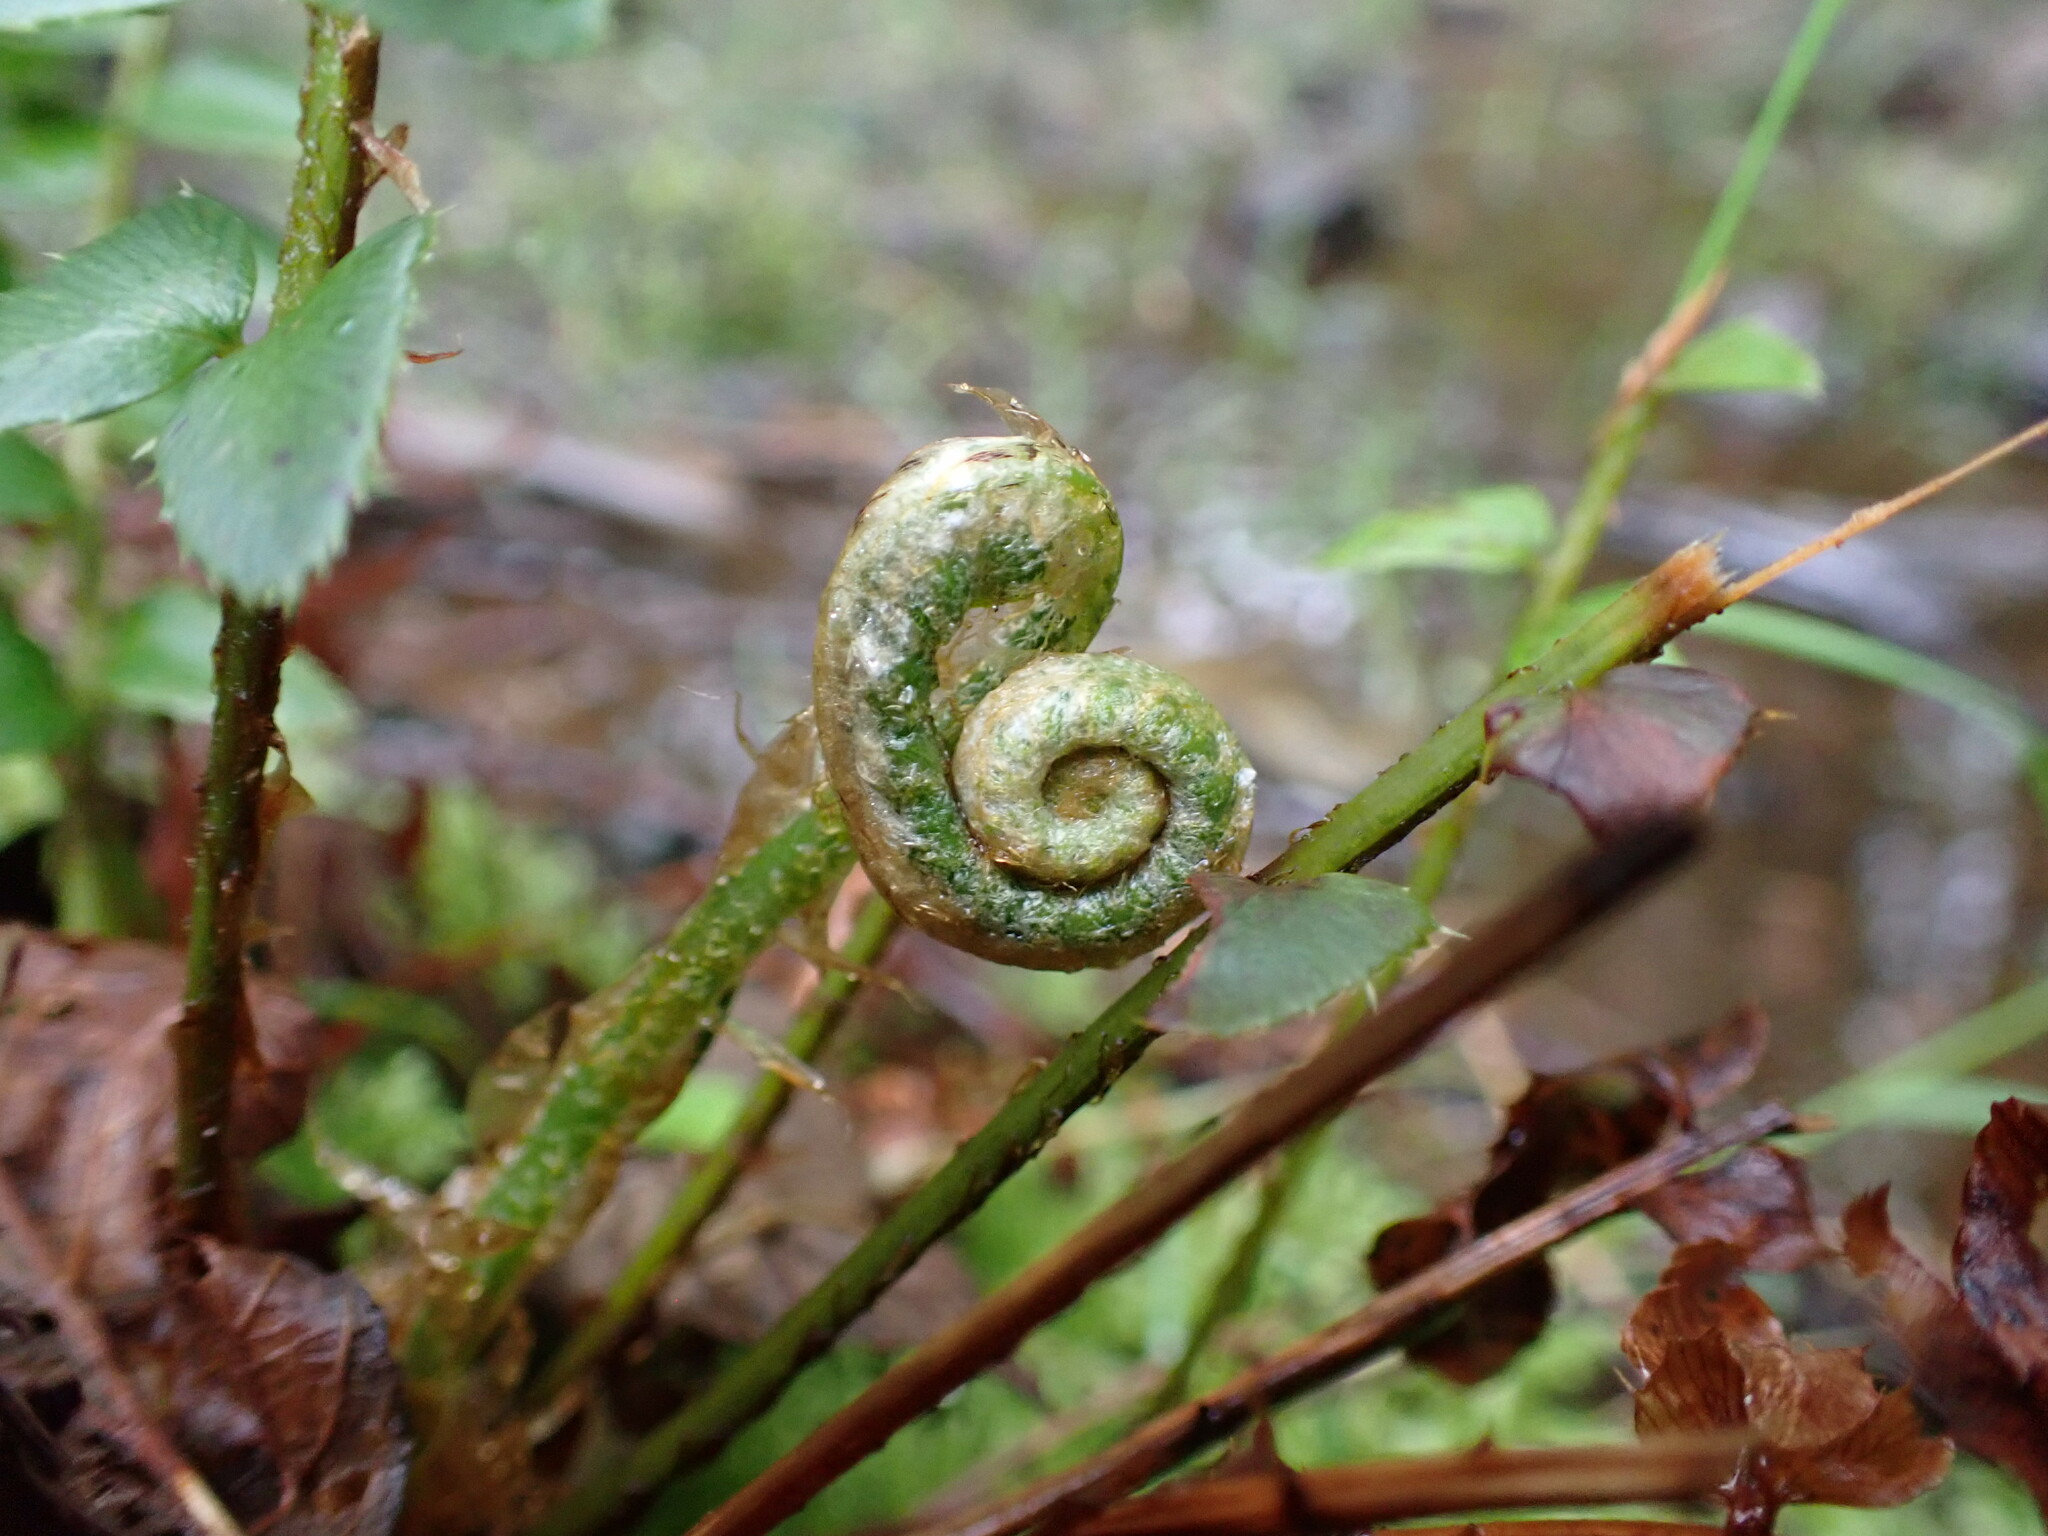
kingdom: Plantae
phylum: Tracheophyta
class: Polypodiopsida
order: Polypodiales
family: Dryopteridaceae
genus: Polystichum
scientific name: Polystichum munitum
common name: Western sword-fern
